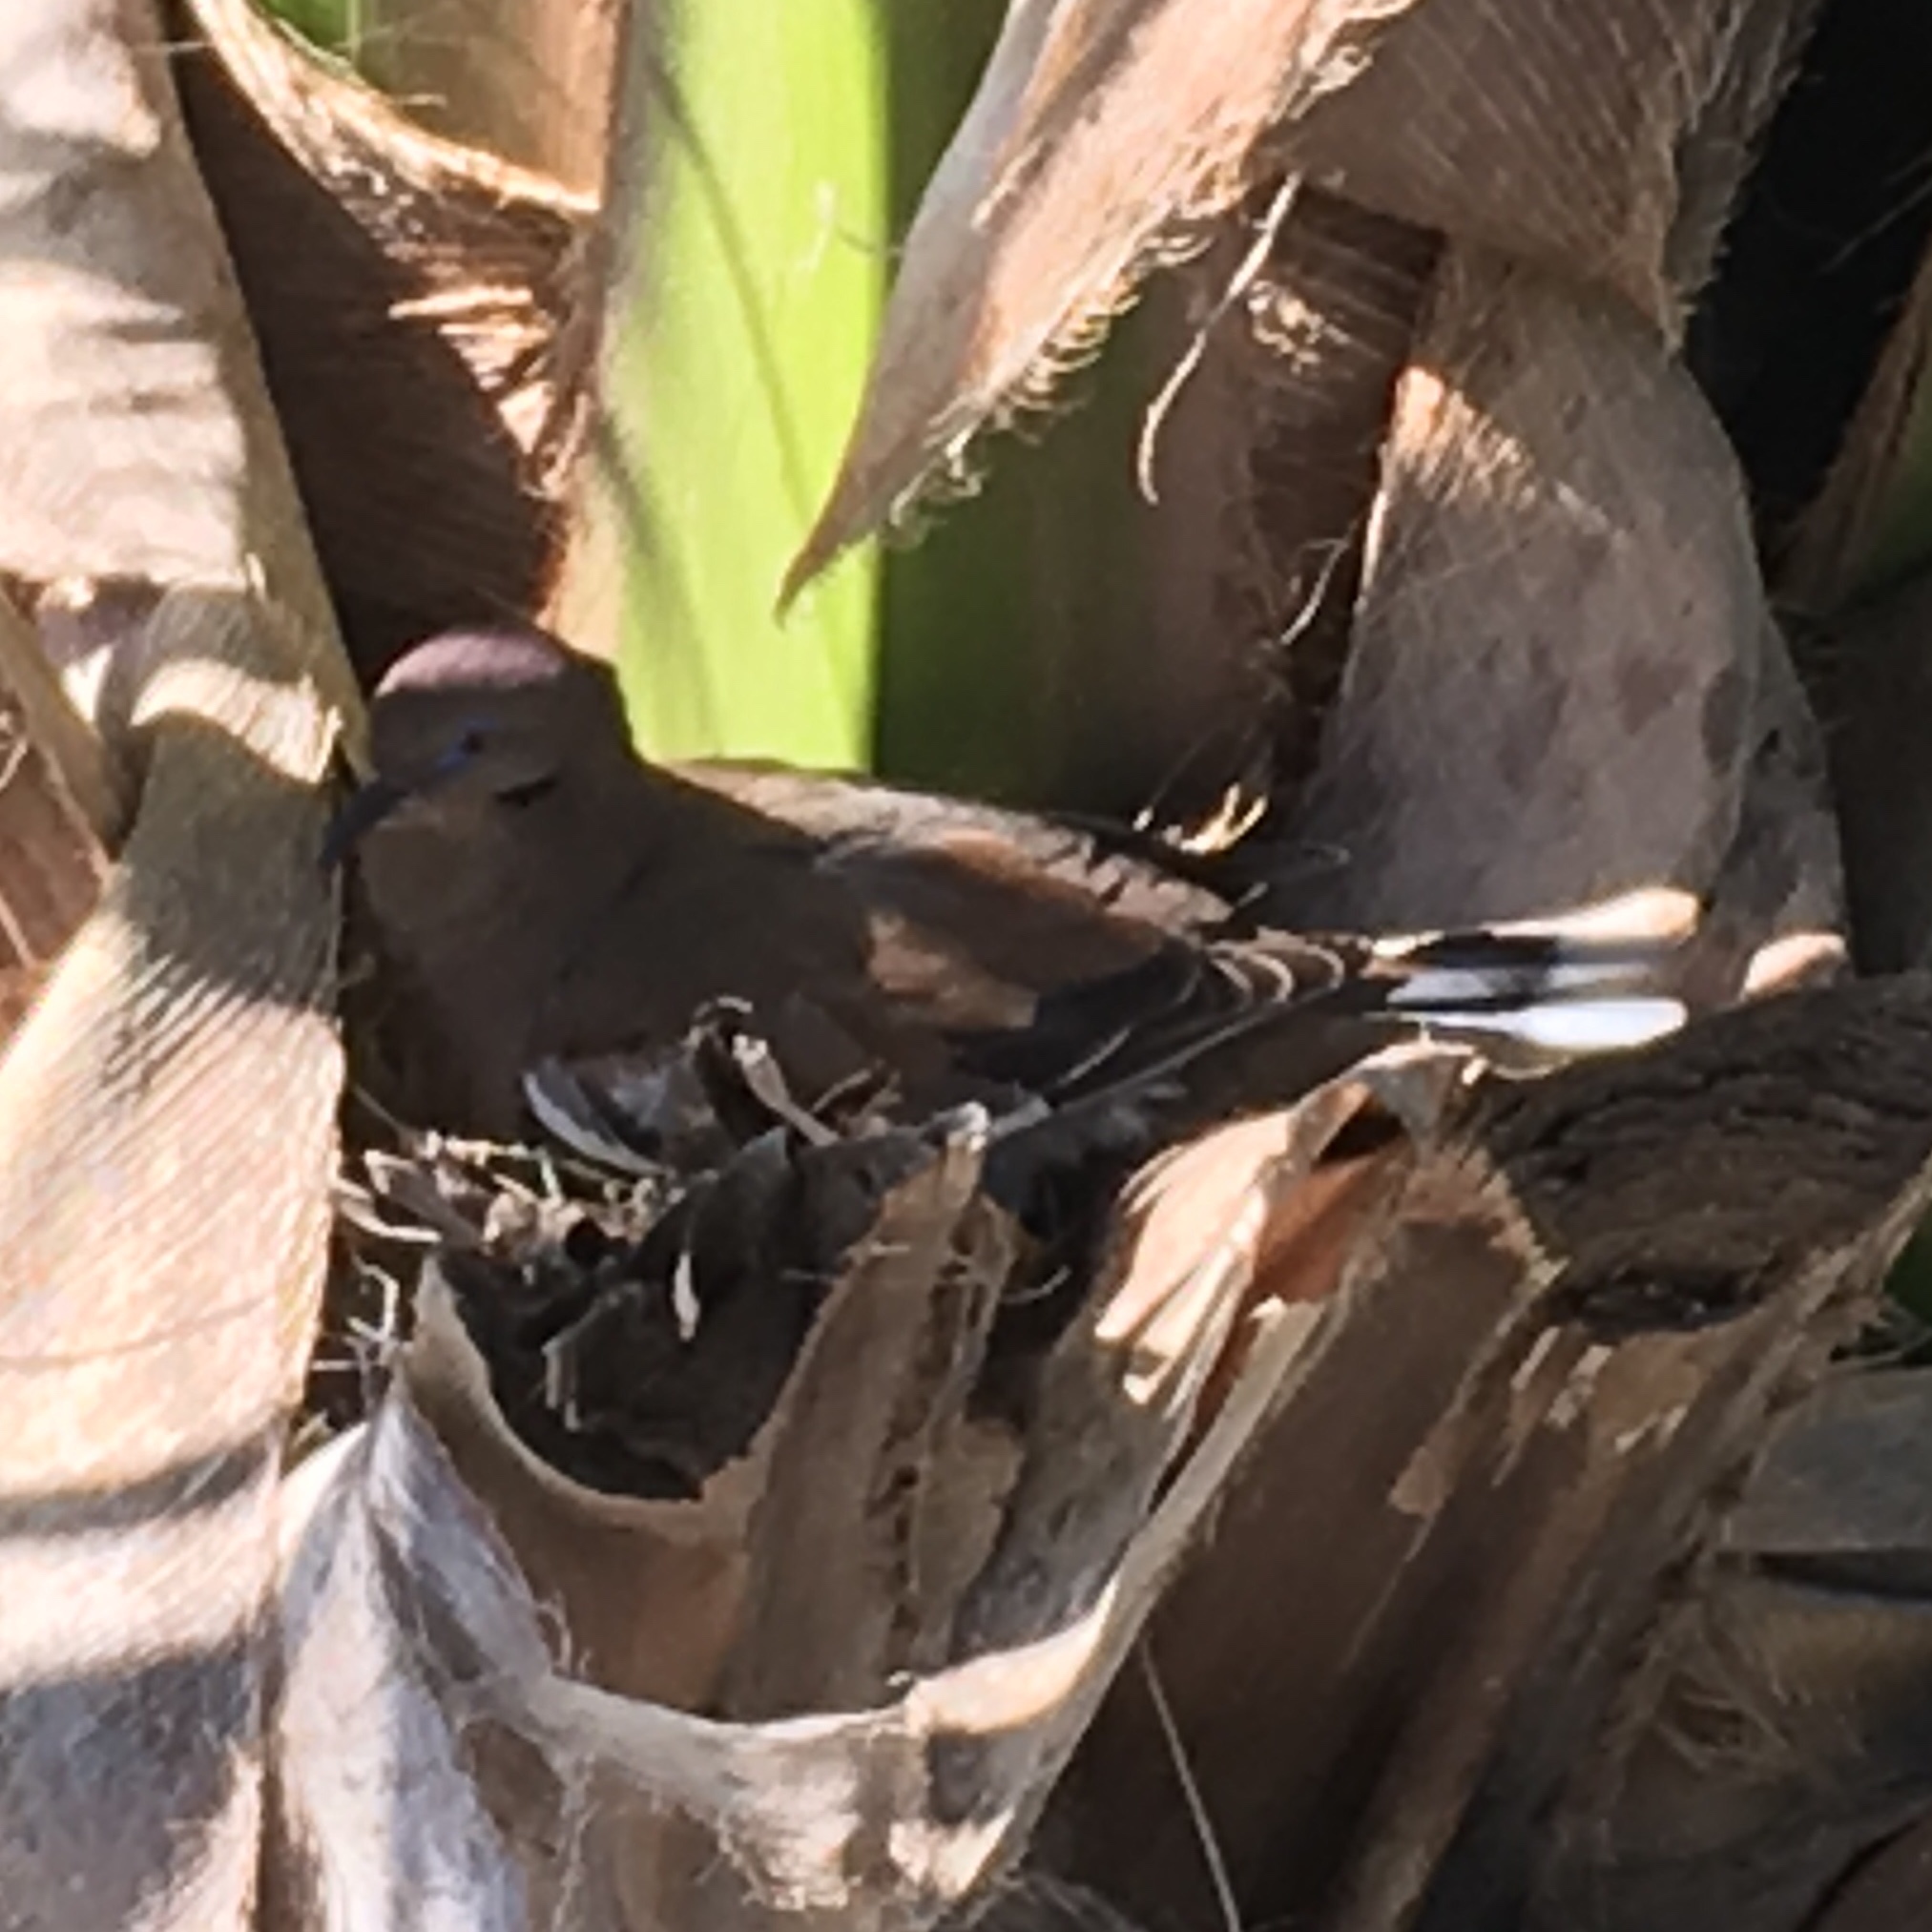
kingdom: Animalia
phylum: Chordata
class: Aves
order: Columbiformes
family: Columbidae
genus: Zenaida
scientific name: Zenaida asiatica
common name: White-winged dove
